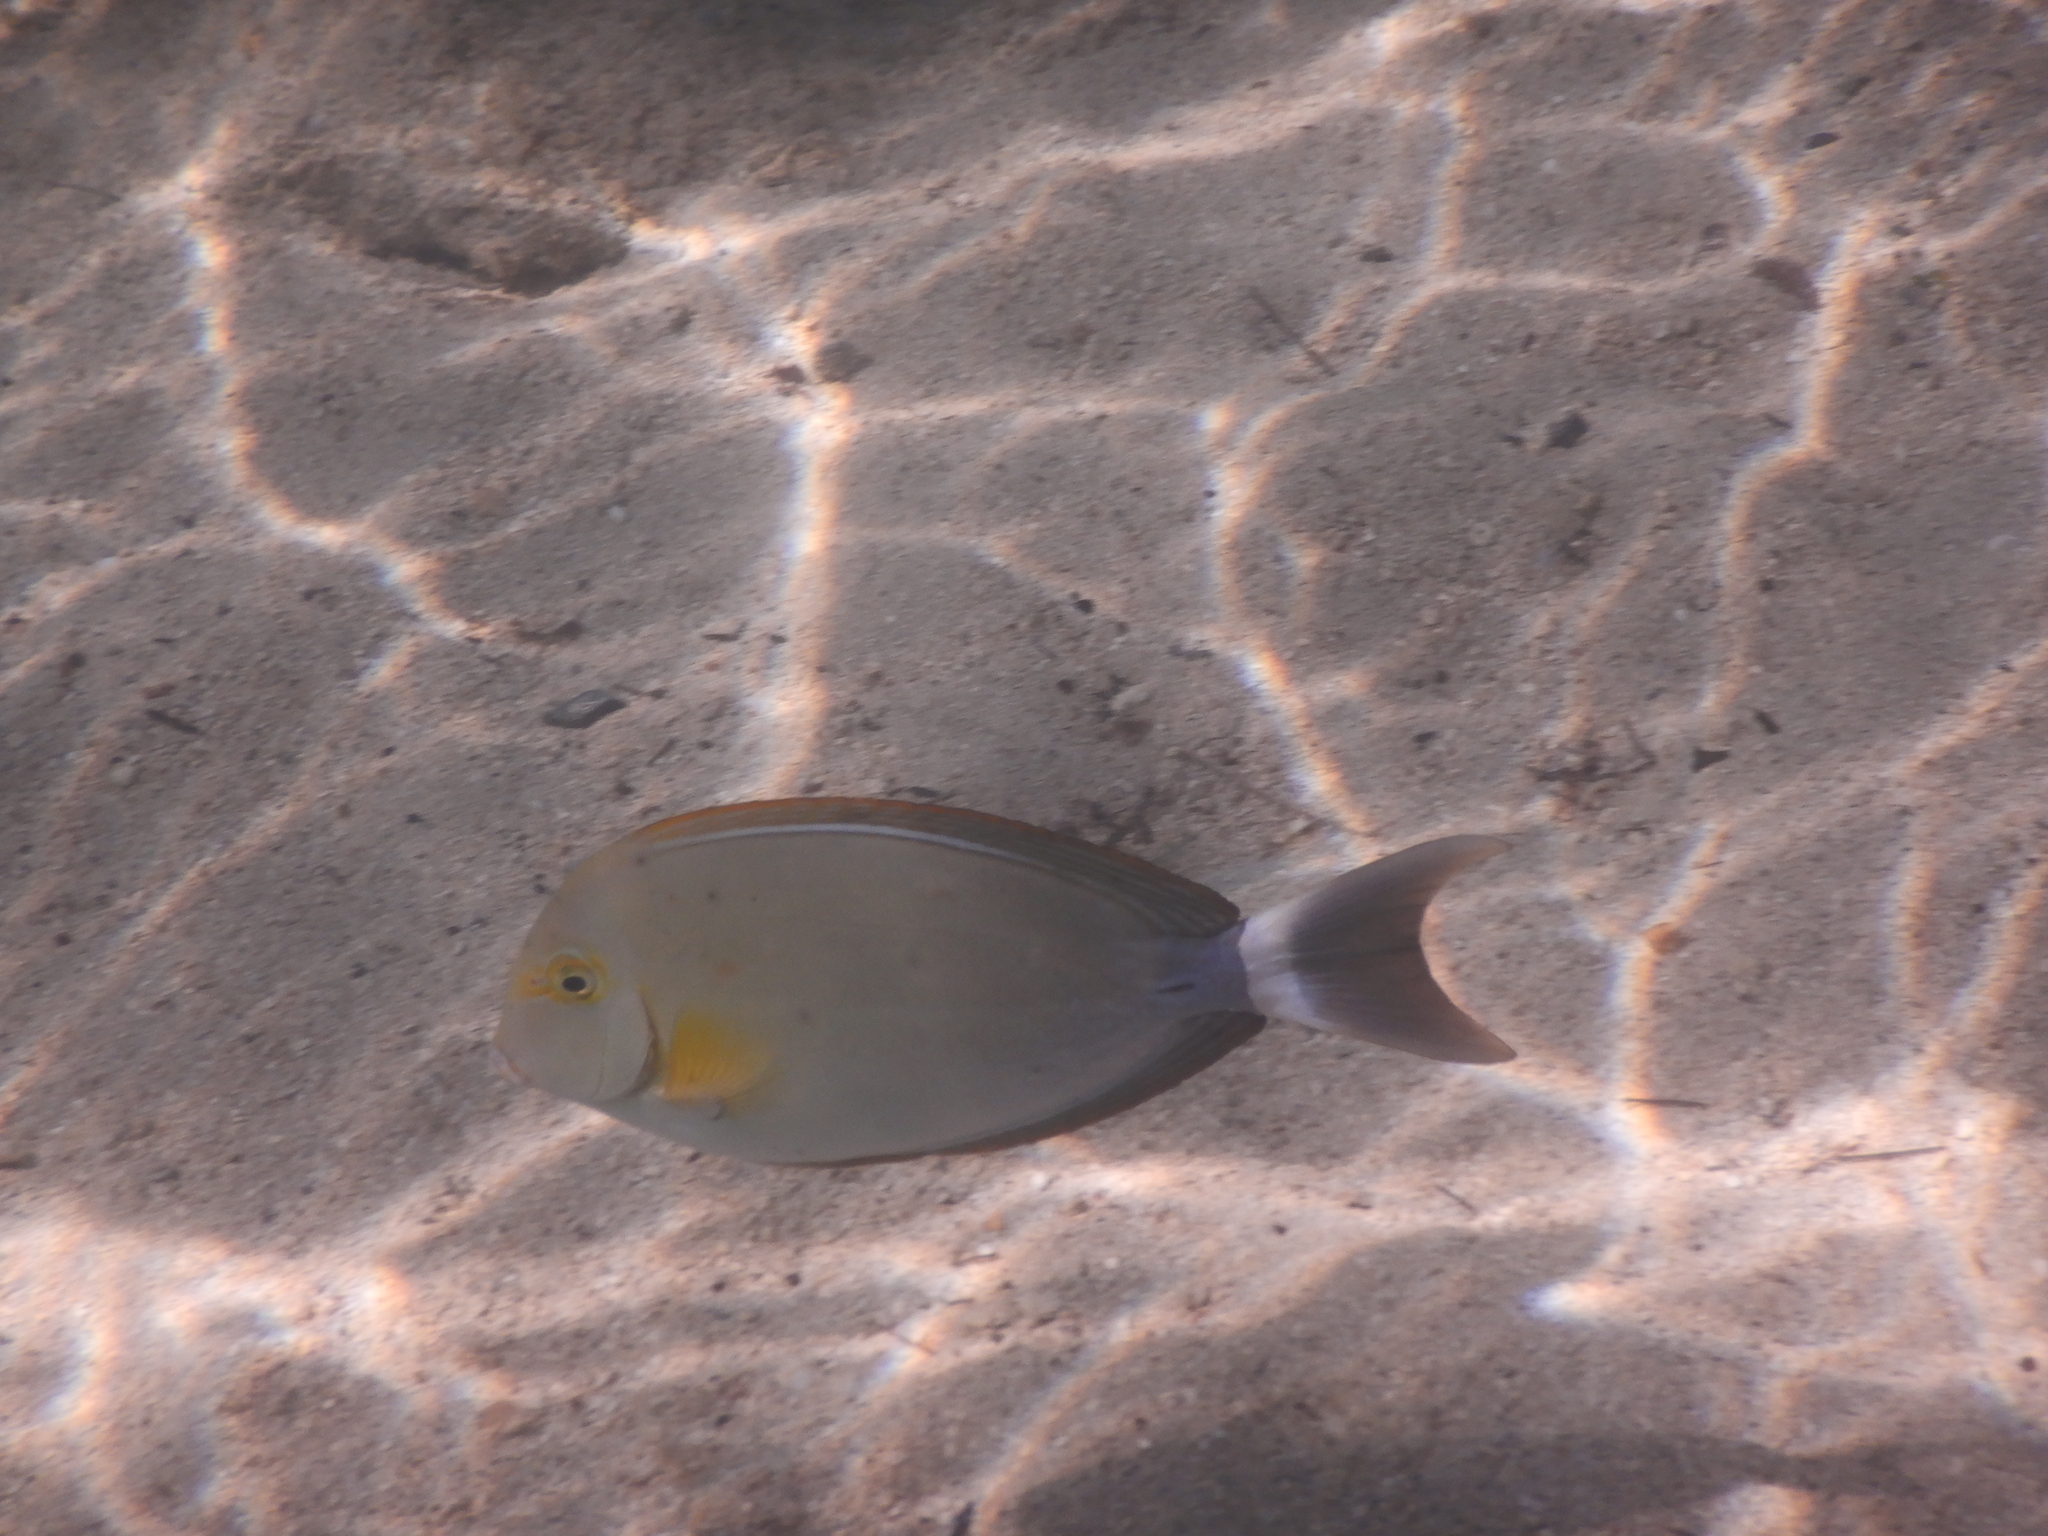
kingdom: Animalia
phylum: Chordata
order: Perciformes
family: Acanthuridae
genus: Acanthurus
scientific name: Acanthurus xanthopterus
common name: Cuvier's surgeonfish
